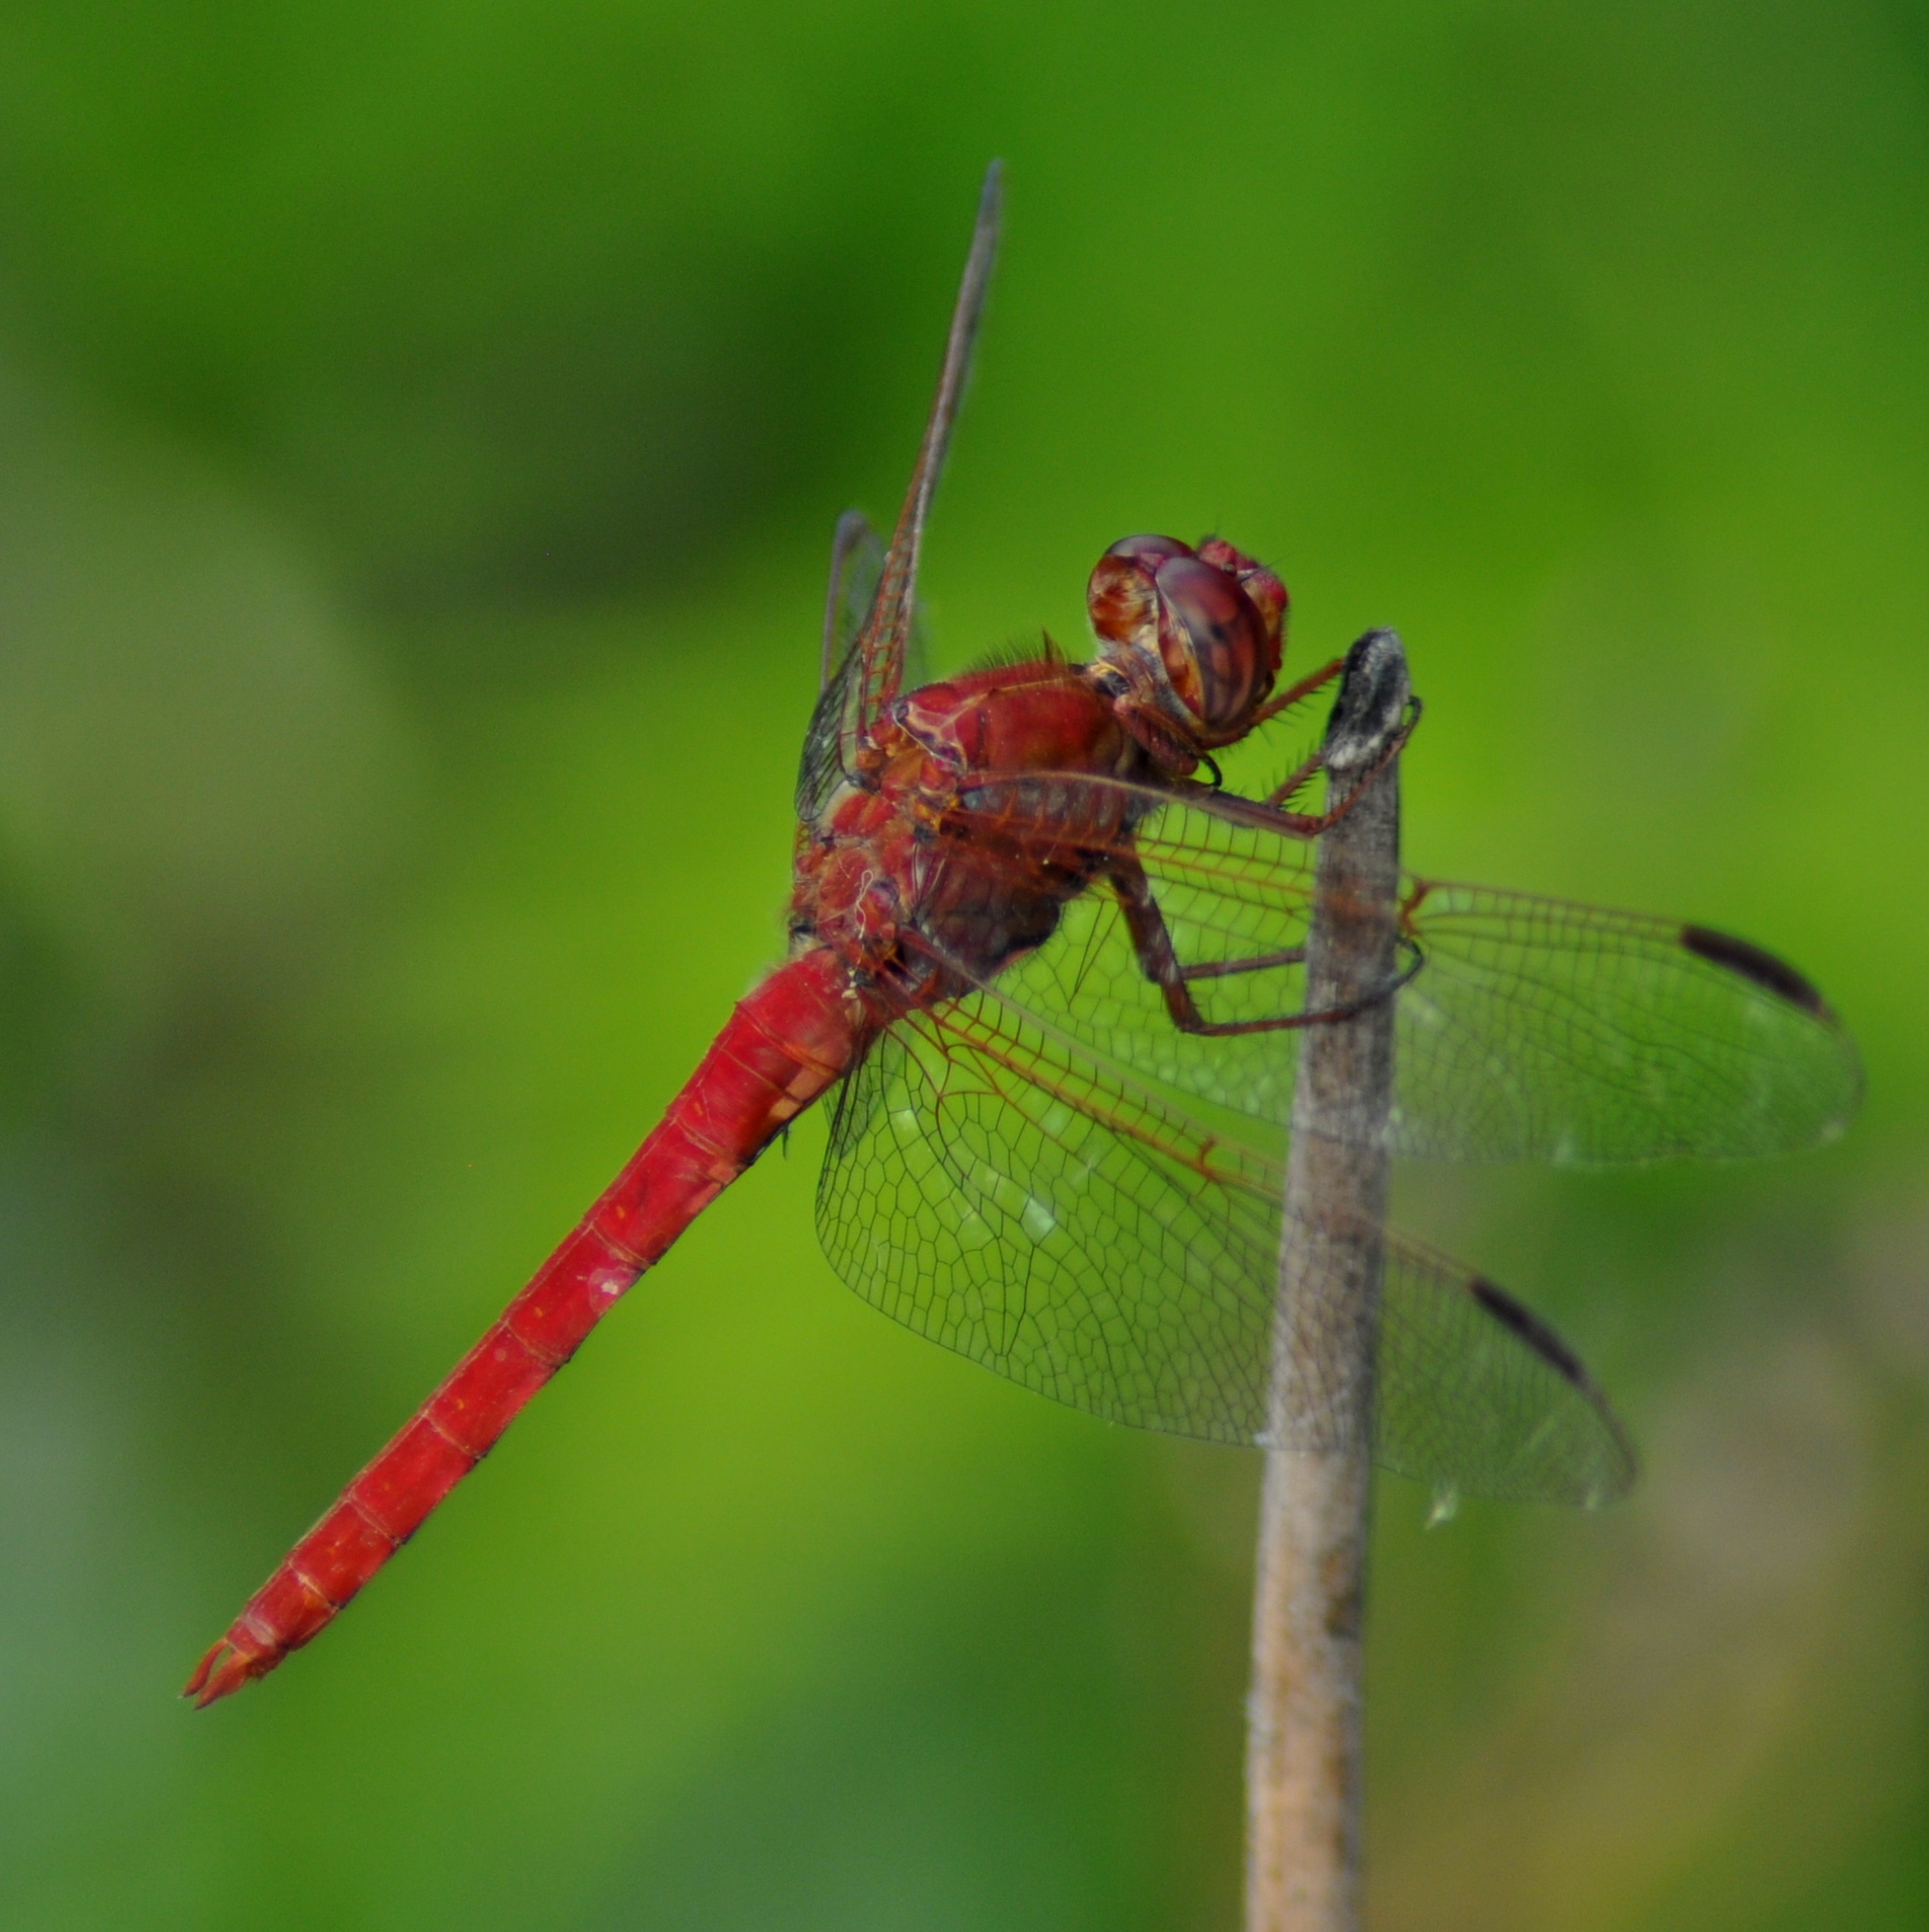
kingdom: Animalia
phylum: Arthropoda
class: Insecta
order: Odonata
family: Libellulidae
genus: Orthemis
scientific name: Orthemis nodiplaga
